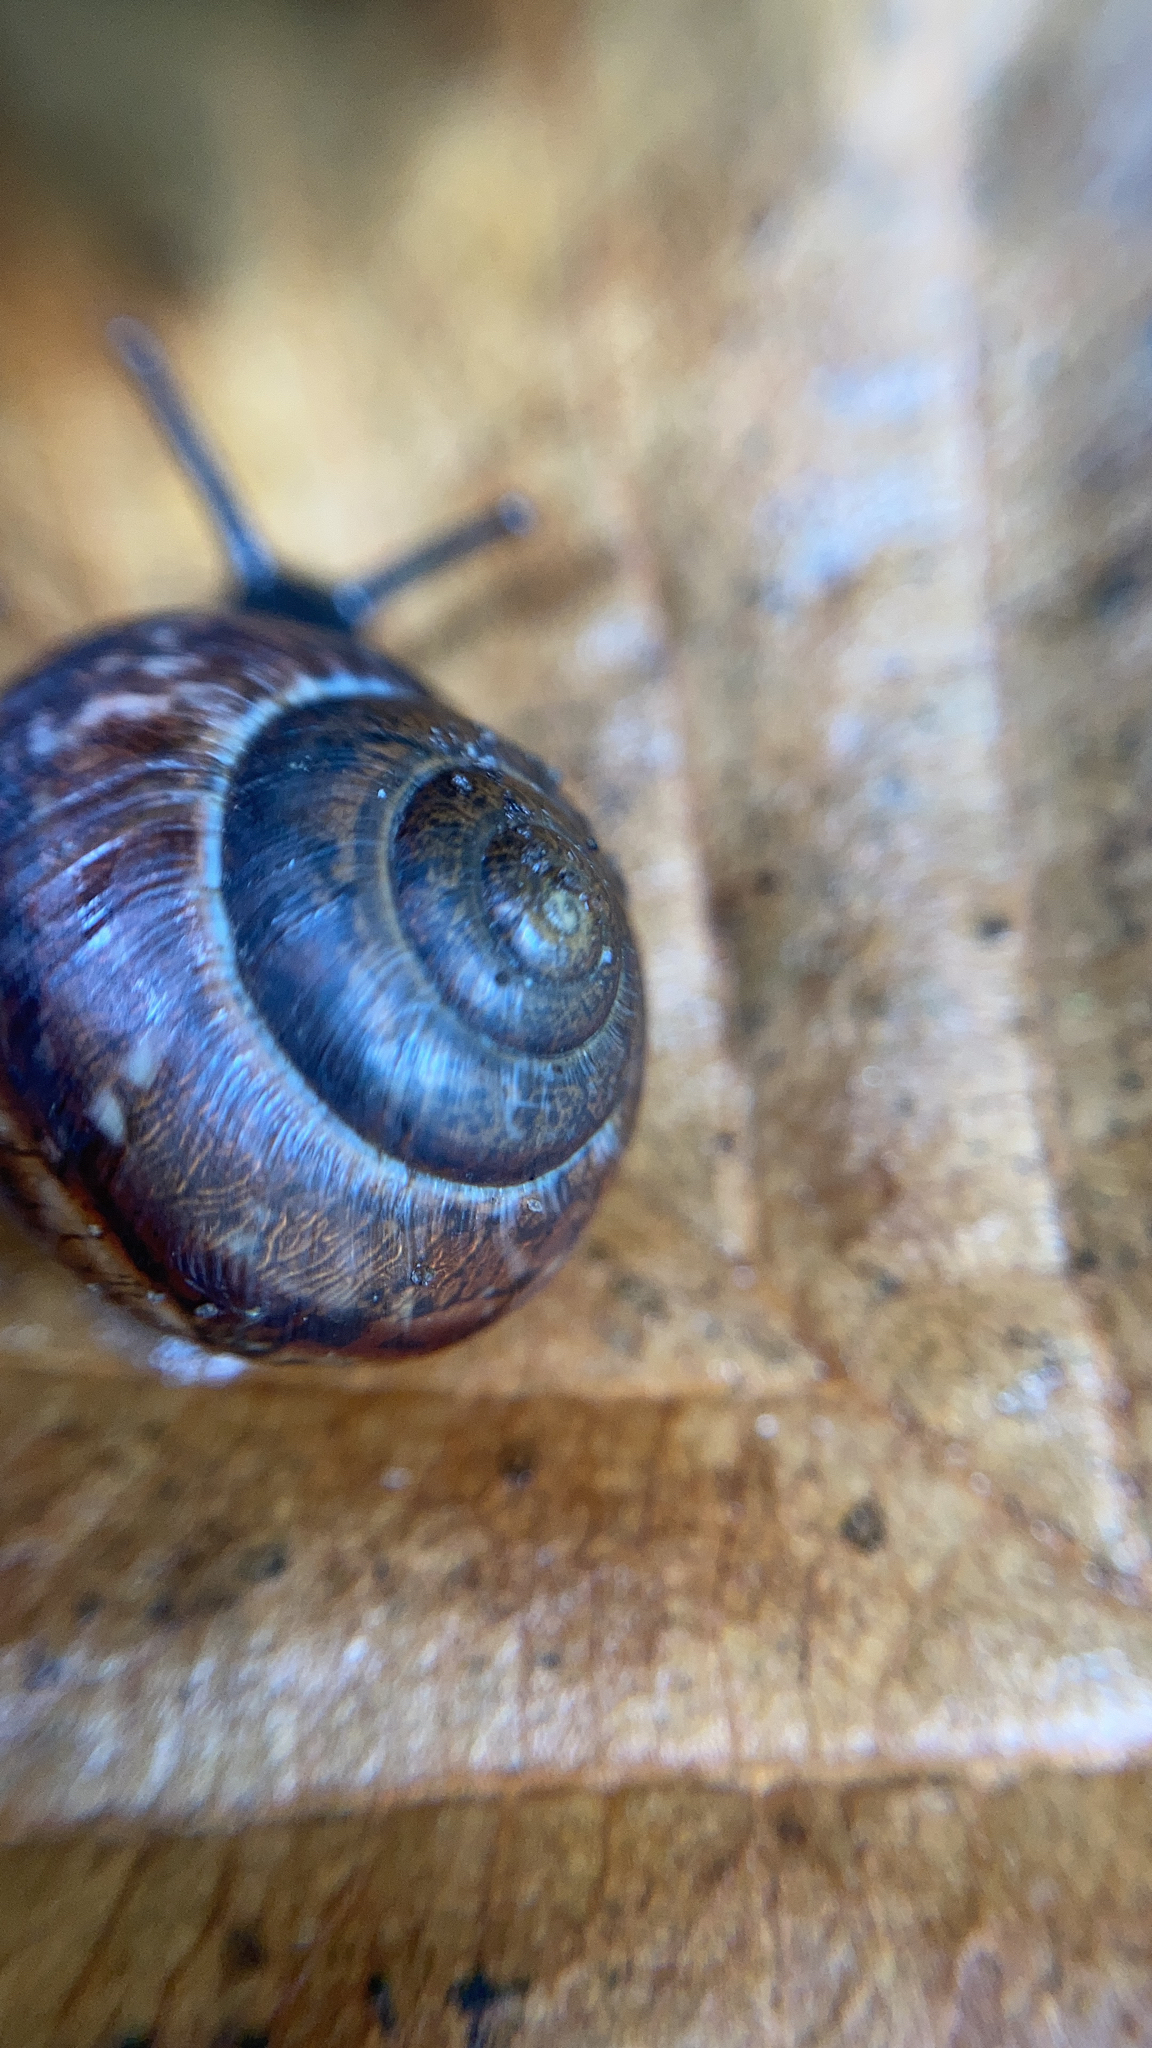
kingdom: Animalia
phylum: Mollusca
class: Gastropoda
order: Stylommatophora
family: Helicidae
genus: Arianta
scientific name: Arianta arbustorum
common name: Copse snail
